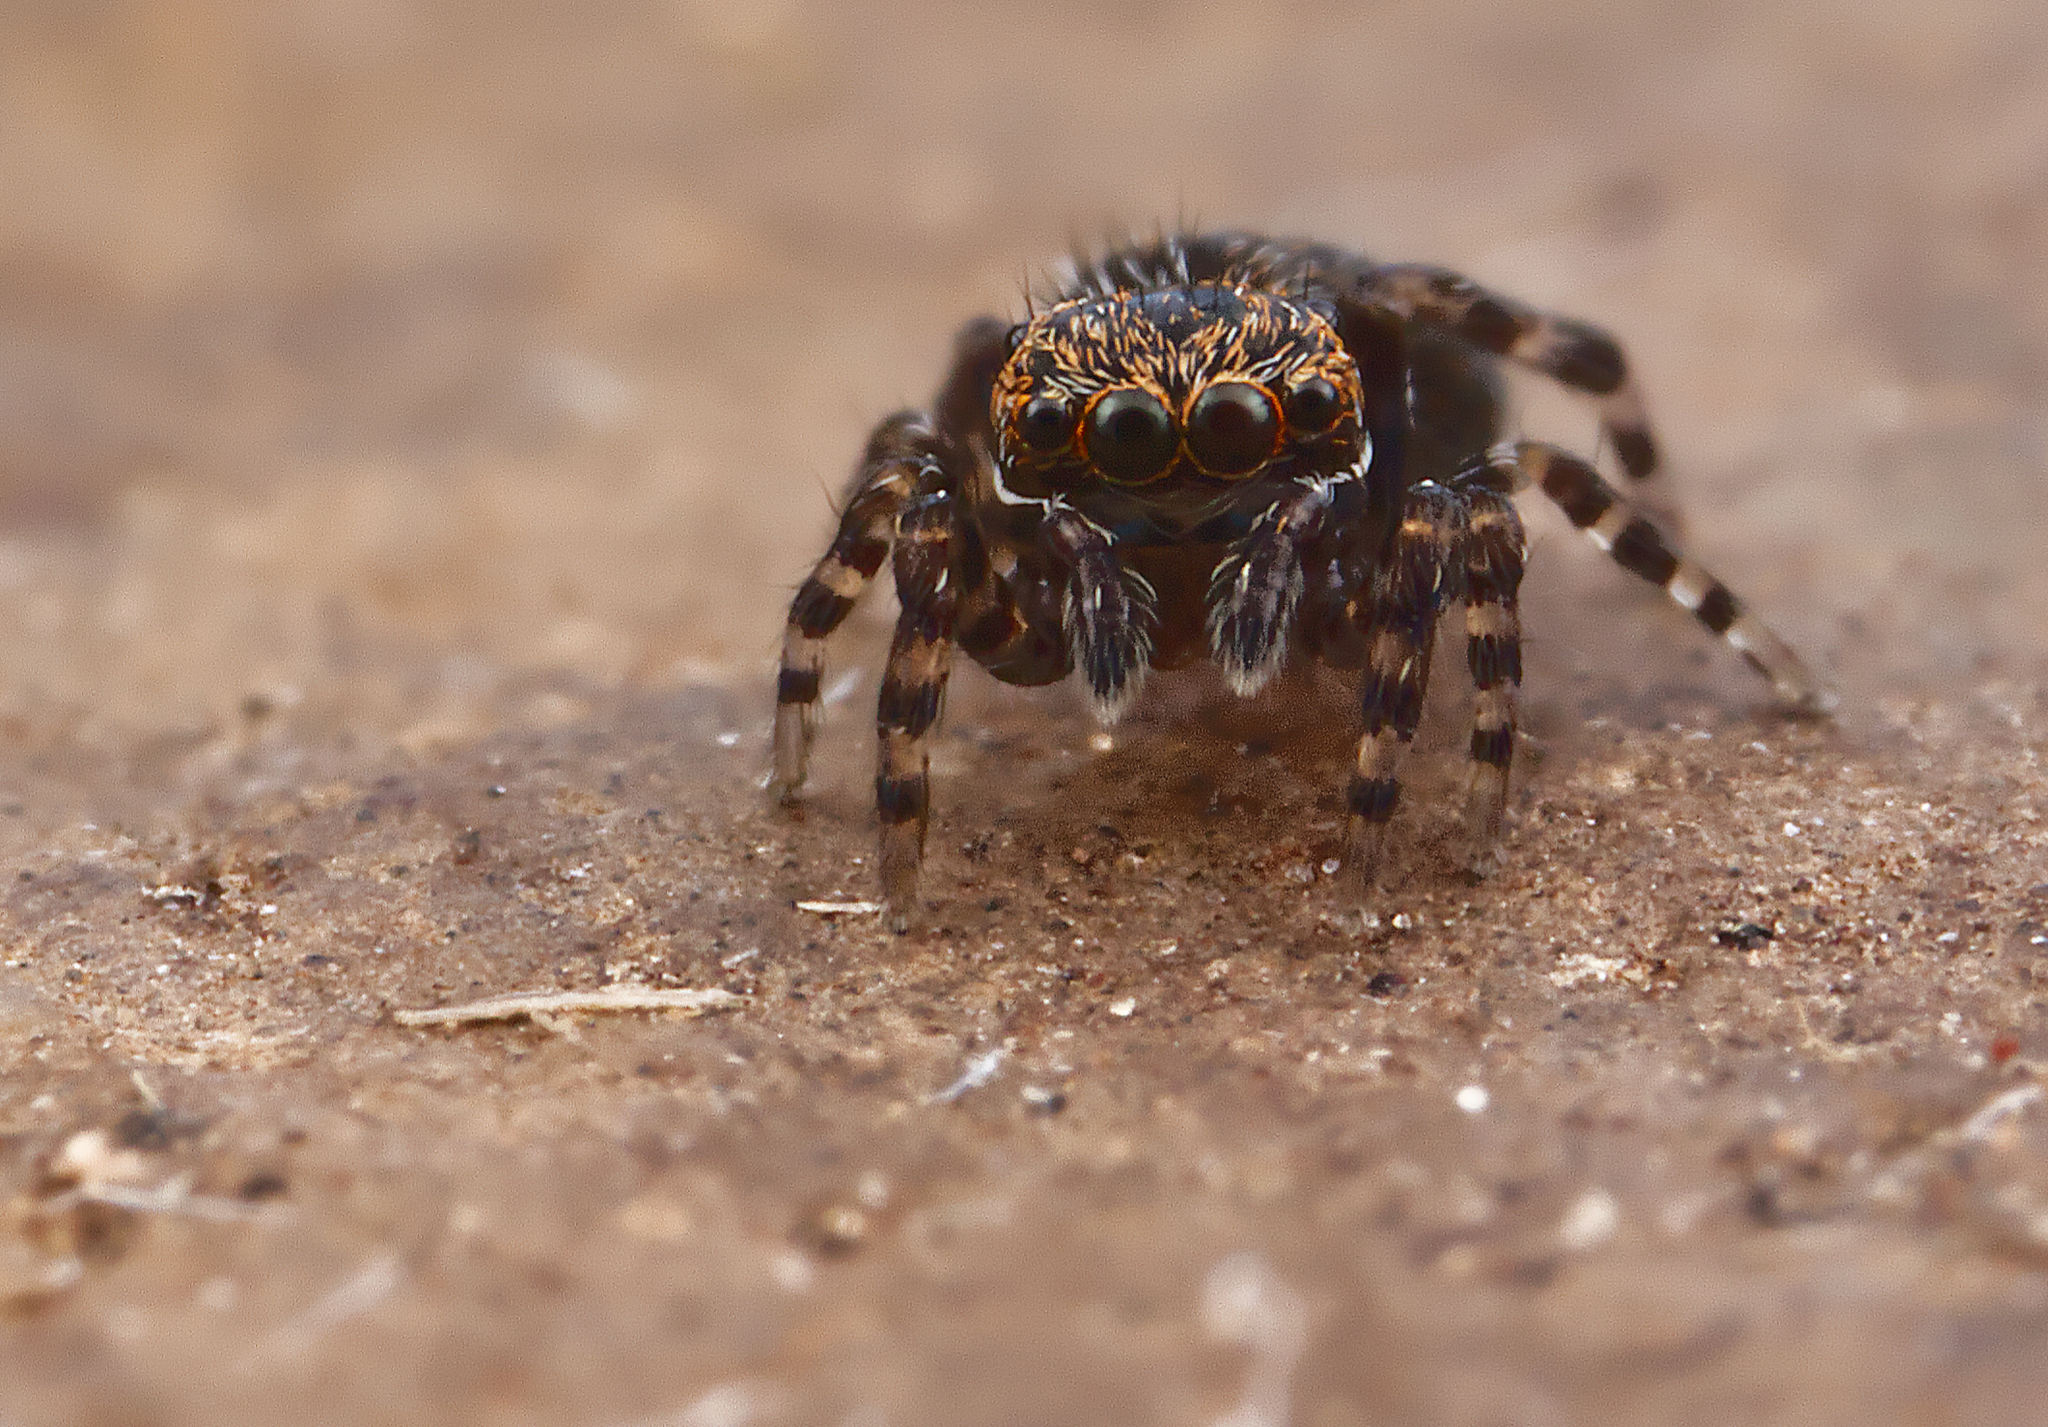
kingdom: Animalia
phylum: Arthropoda
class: Arachnida
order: Araneae
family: Salticidae
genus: Attinella
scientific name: Attinella concolor
